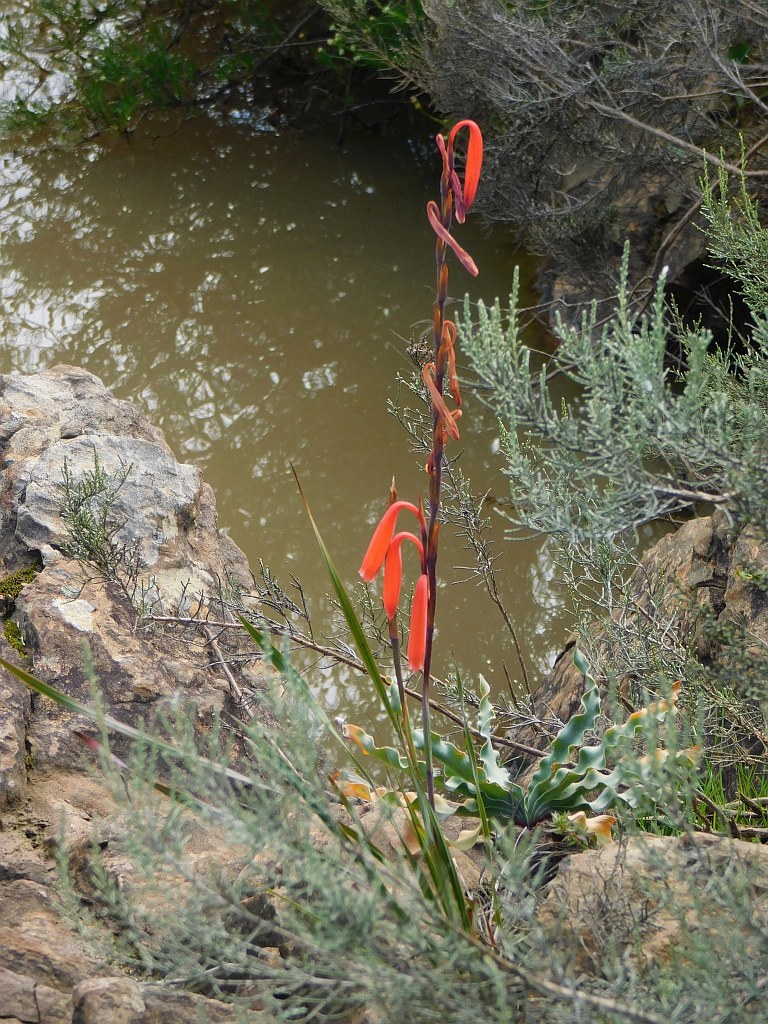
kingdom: Plantae
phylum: Tracheophyta
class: Liliopsida
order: Asparagales
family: Iridaceae
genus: Watsonia
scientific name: Watsonia aletroides
